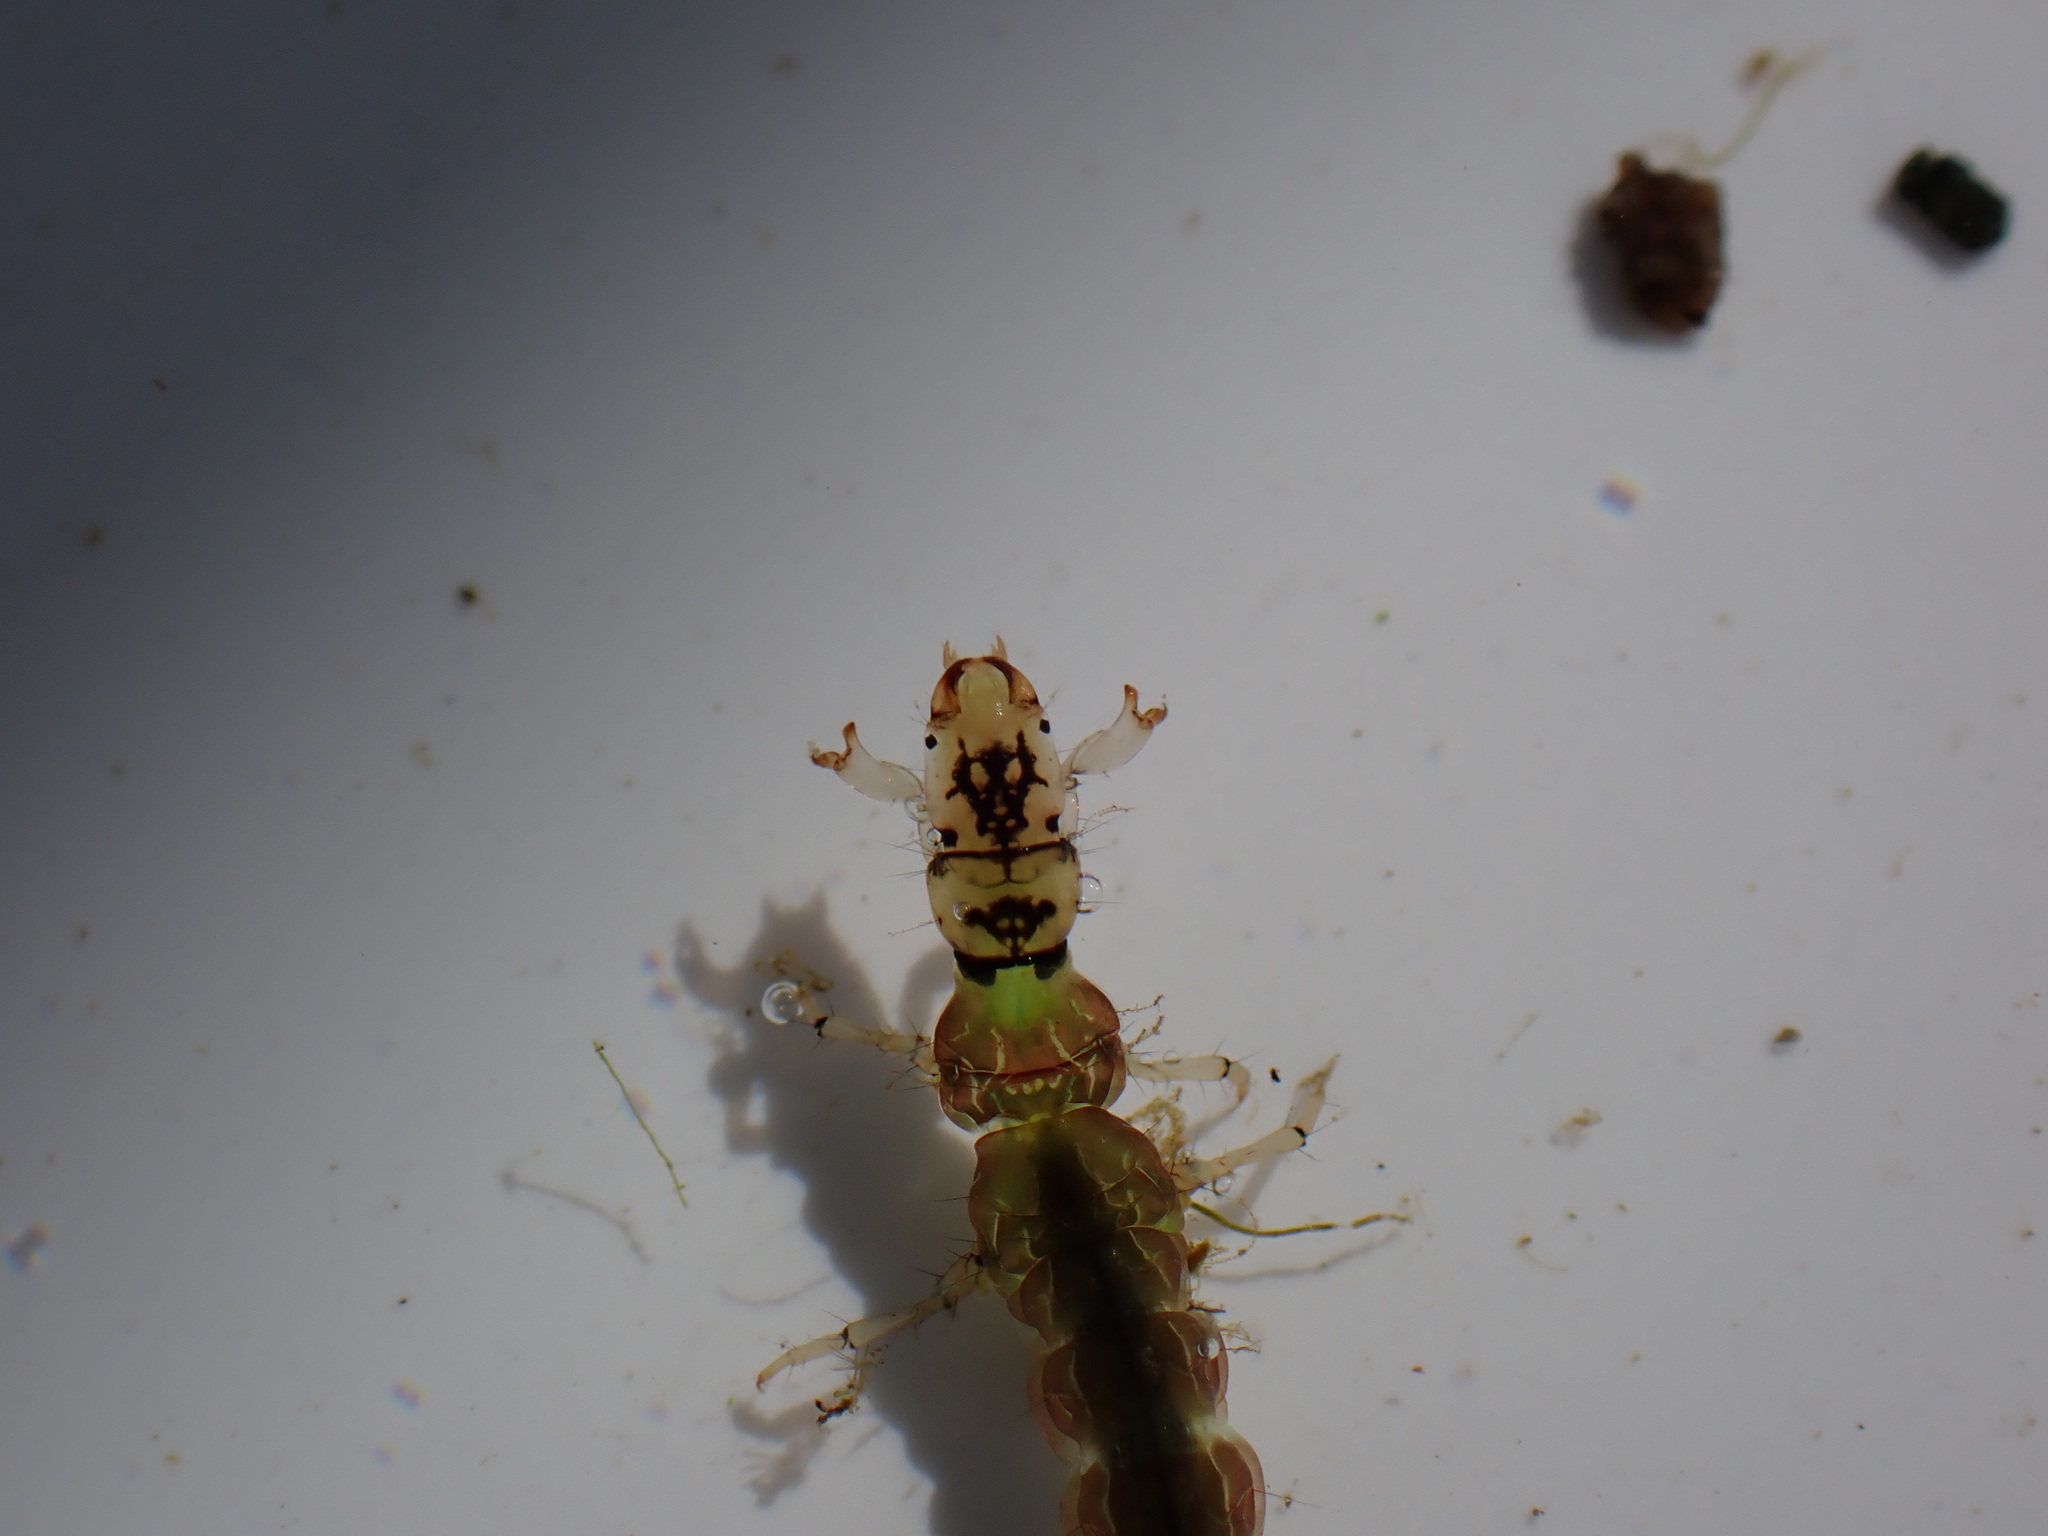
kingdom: Animalia
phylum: Arthropoda
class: Insecta
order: Trichoptera
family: Hydrobiosidae
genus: Hydrobiosis
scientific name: Hydrobiosis budgei
